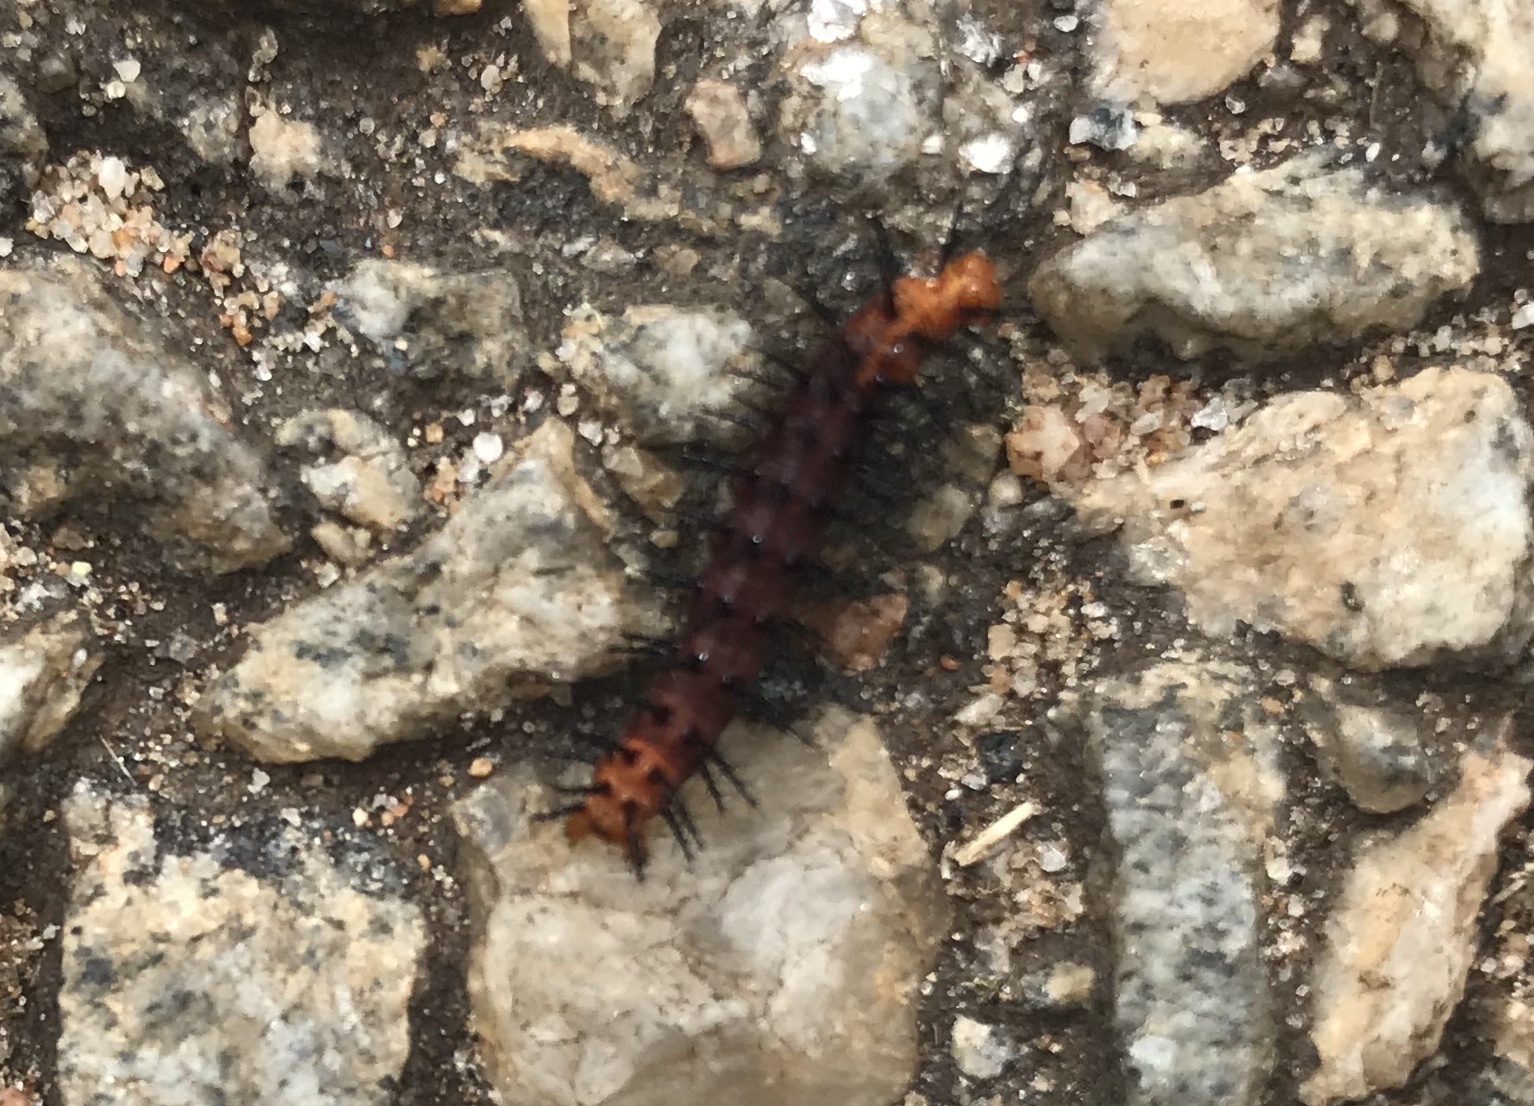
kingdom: Animalia
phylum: Arthropoda
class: Insecta
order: Lepidoptera
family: Nymphalidae
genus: Acraea
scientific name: Acraea terpsicore
